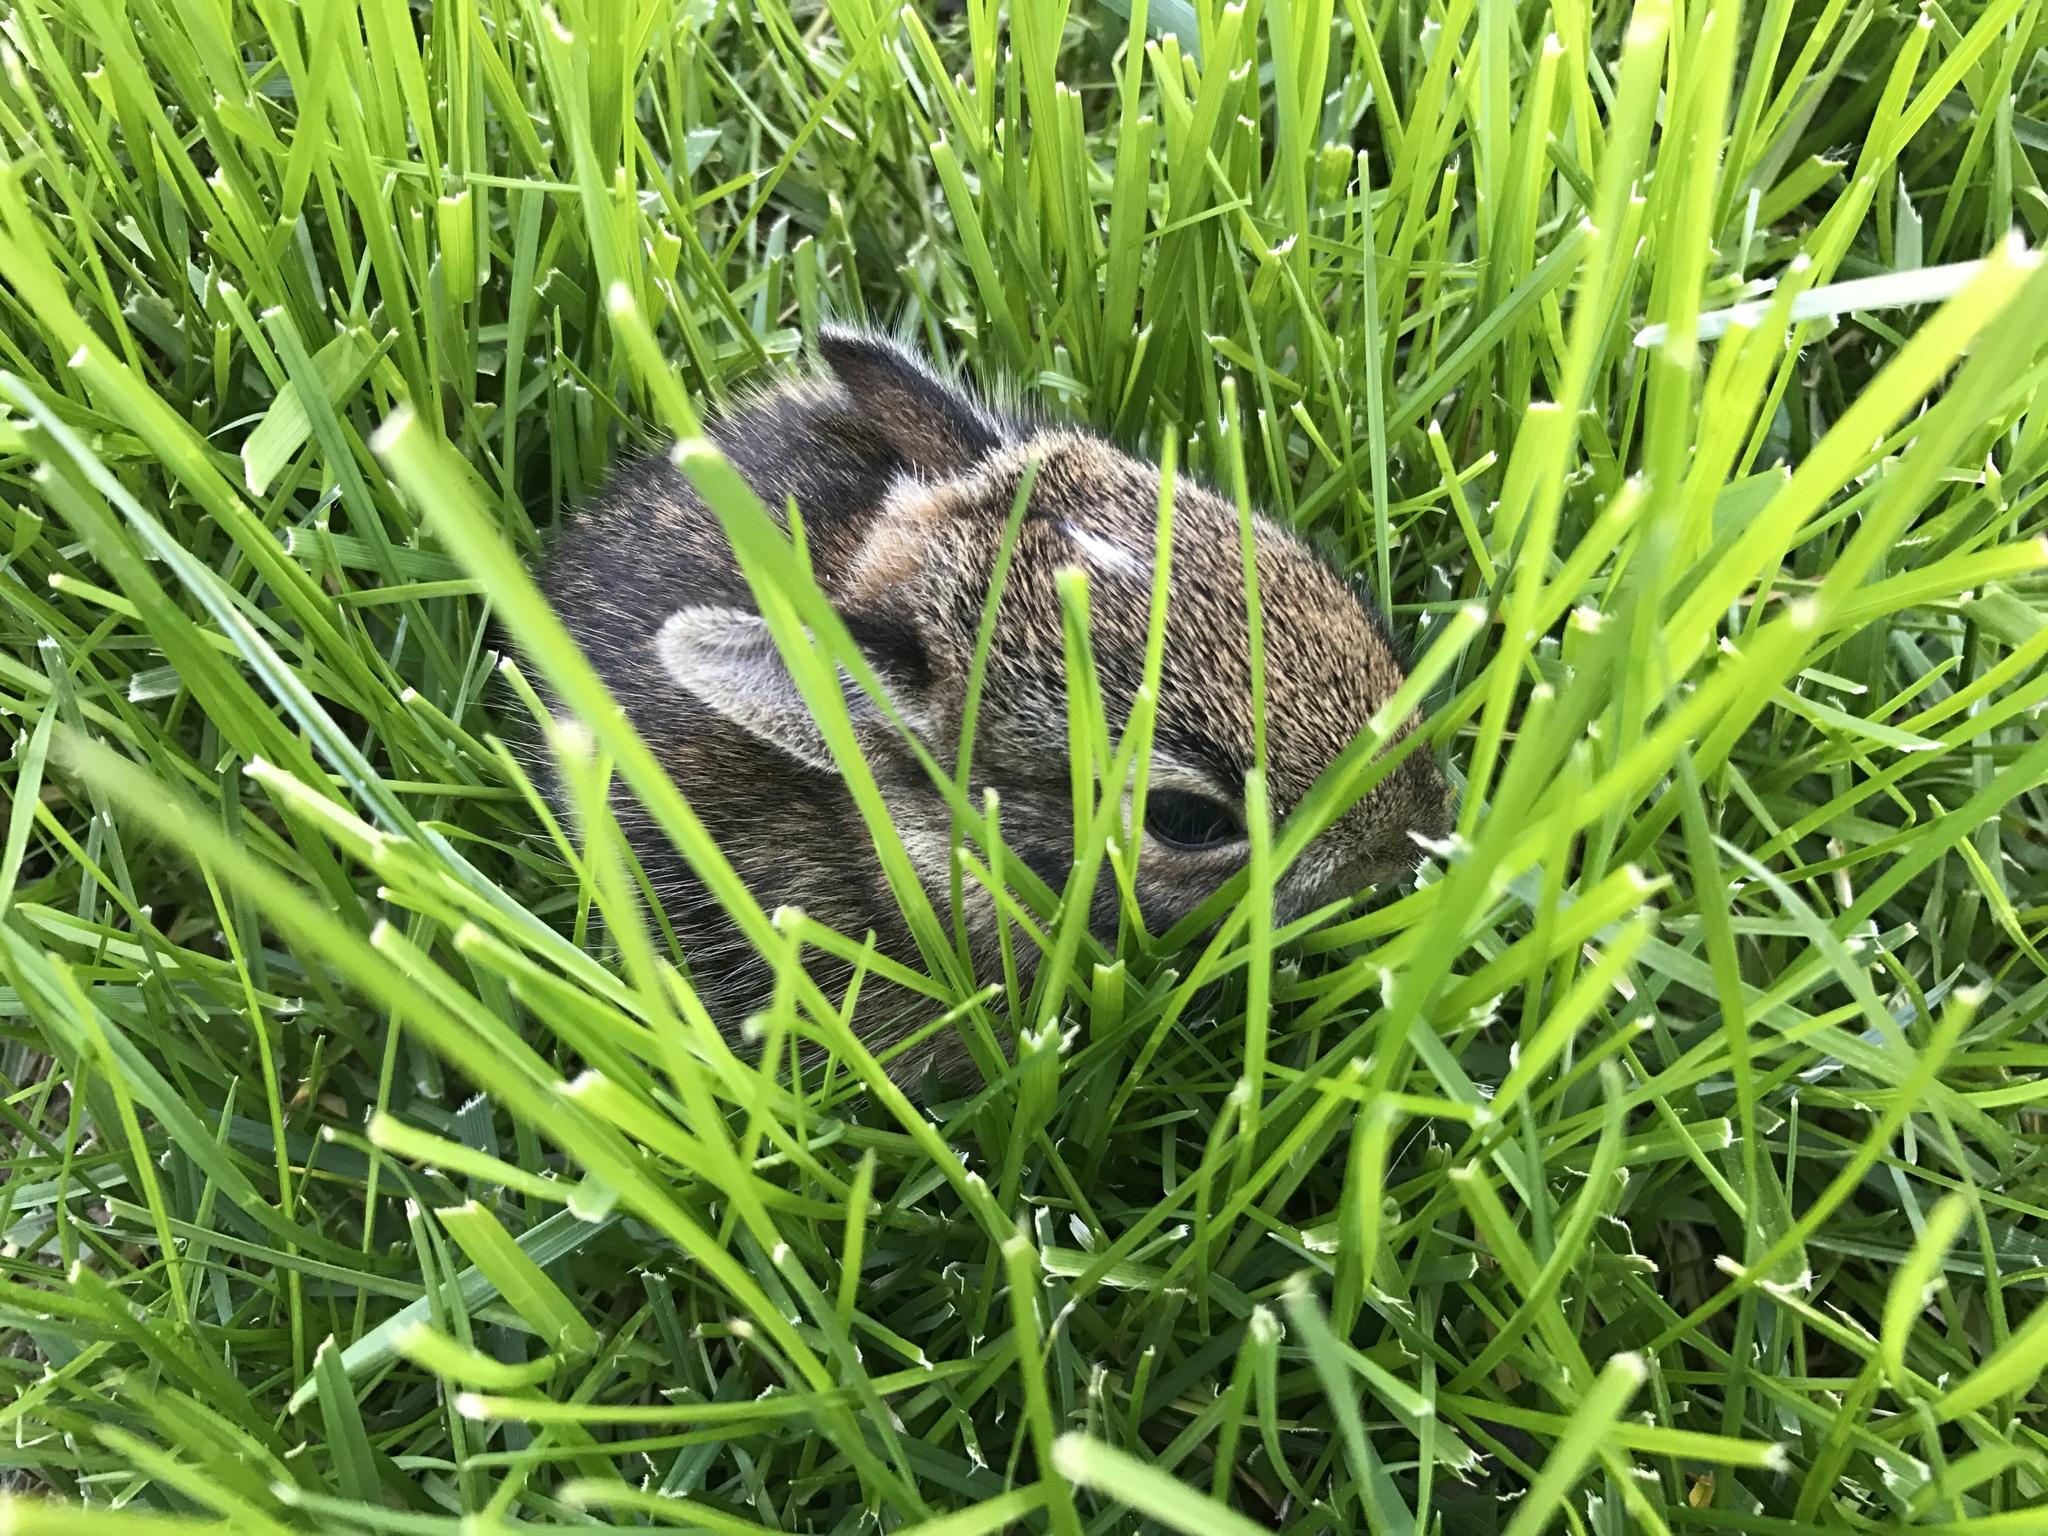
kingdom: Animalia
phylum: Chordata
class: Mammalia
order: Lagomorpha
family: Leporidae
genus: Sylvilagus
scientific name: Sylvilagus floridanus
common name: Eastern cottontail
